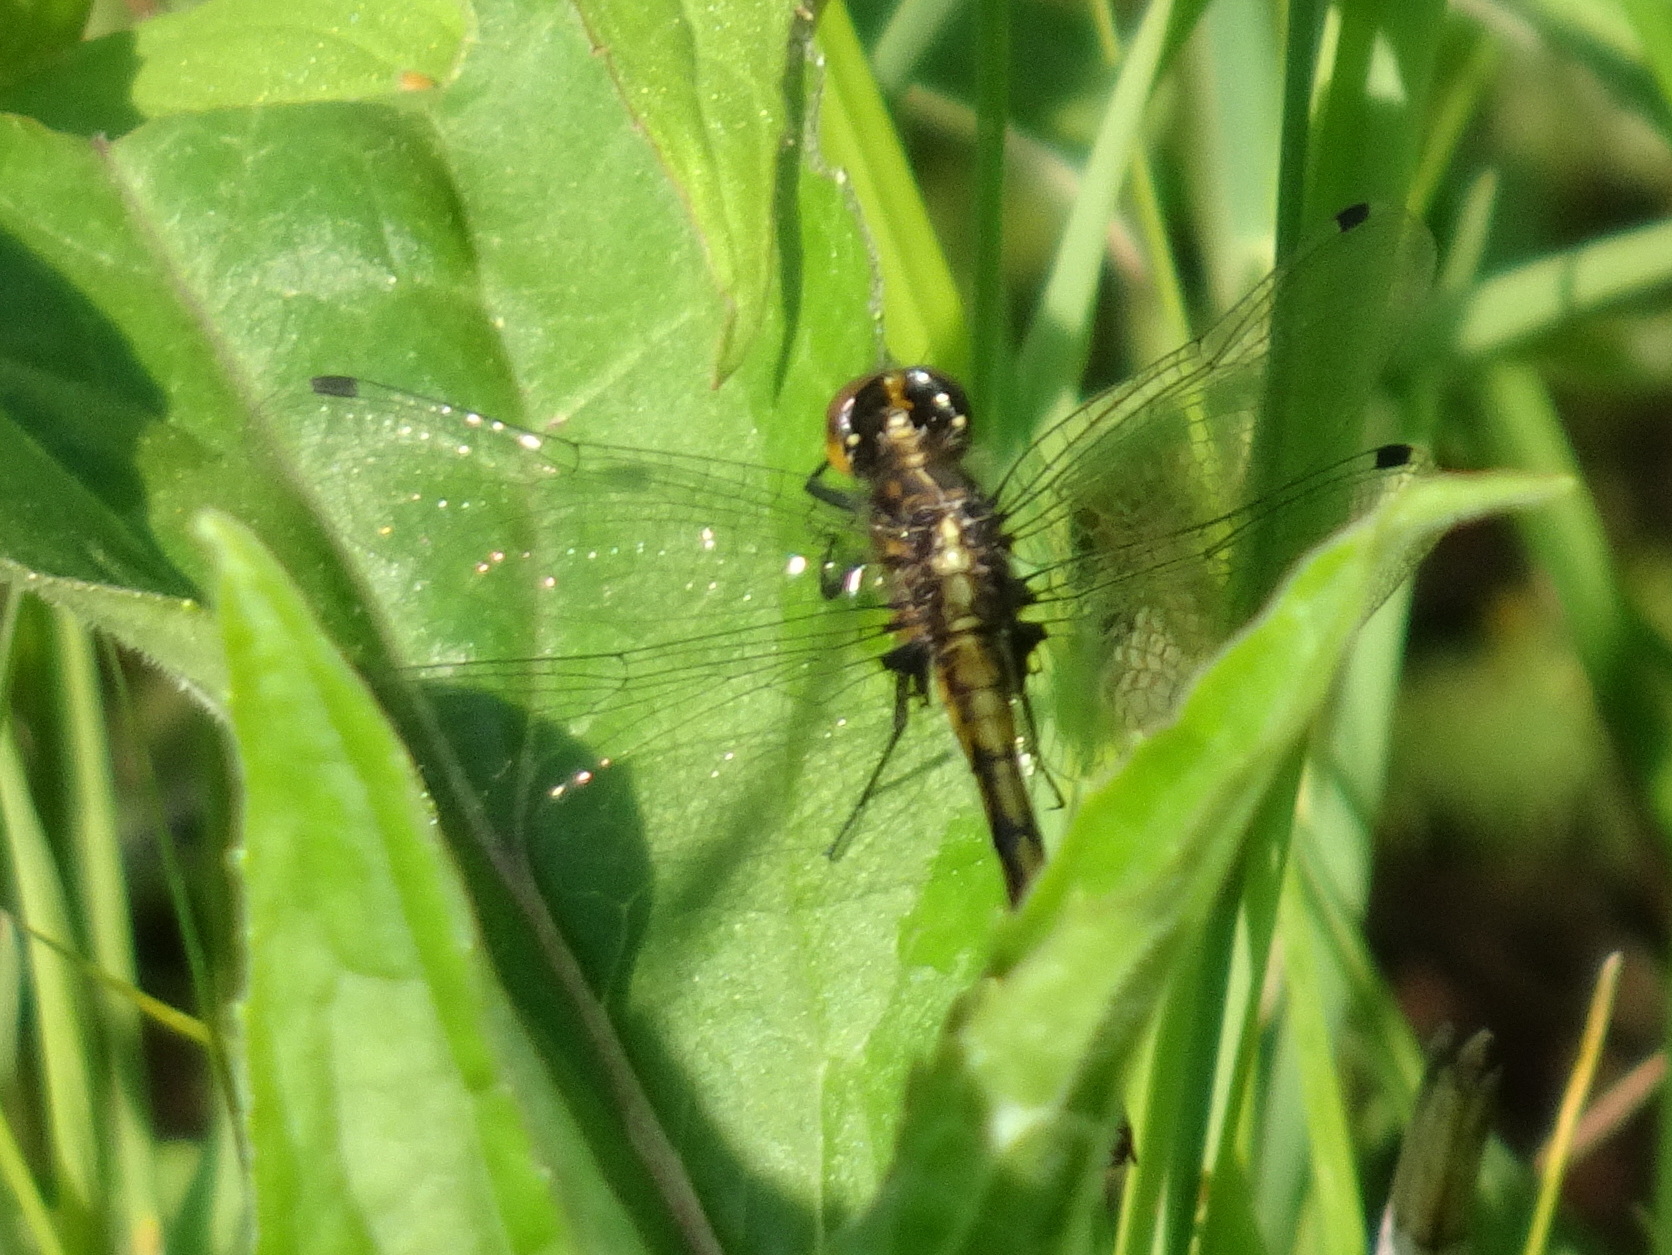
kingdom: Animalia
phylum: Arthropoda
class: Insecta
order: Odonata
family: Libellulidae
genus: Leucorrhinia
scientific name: Leucorrhinia intacta
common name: Dot-tailed whiteface
